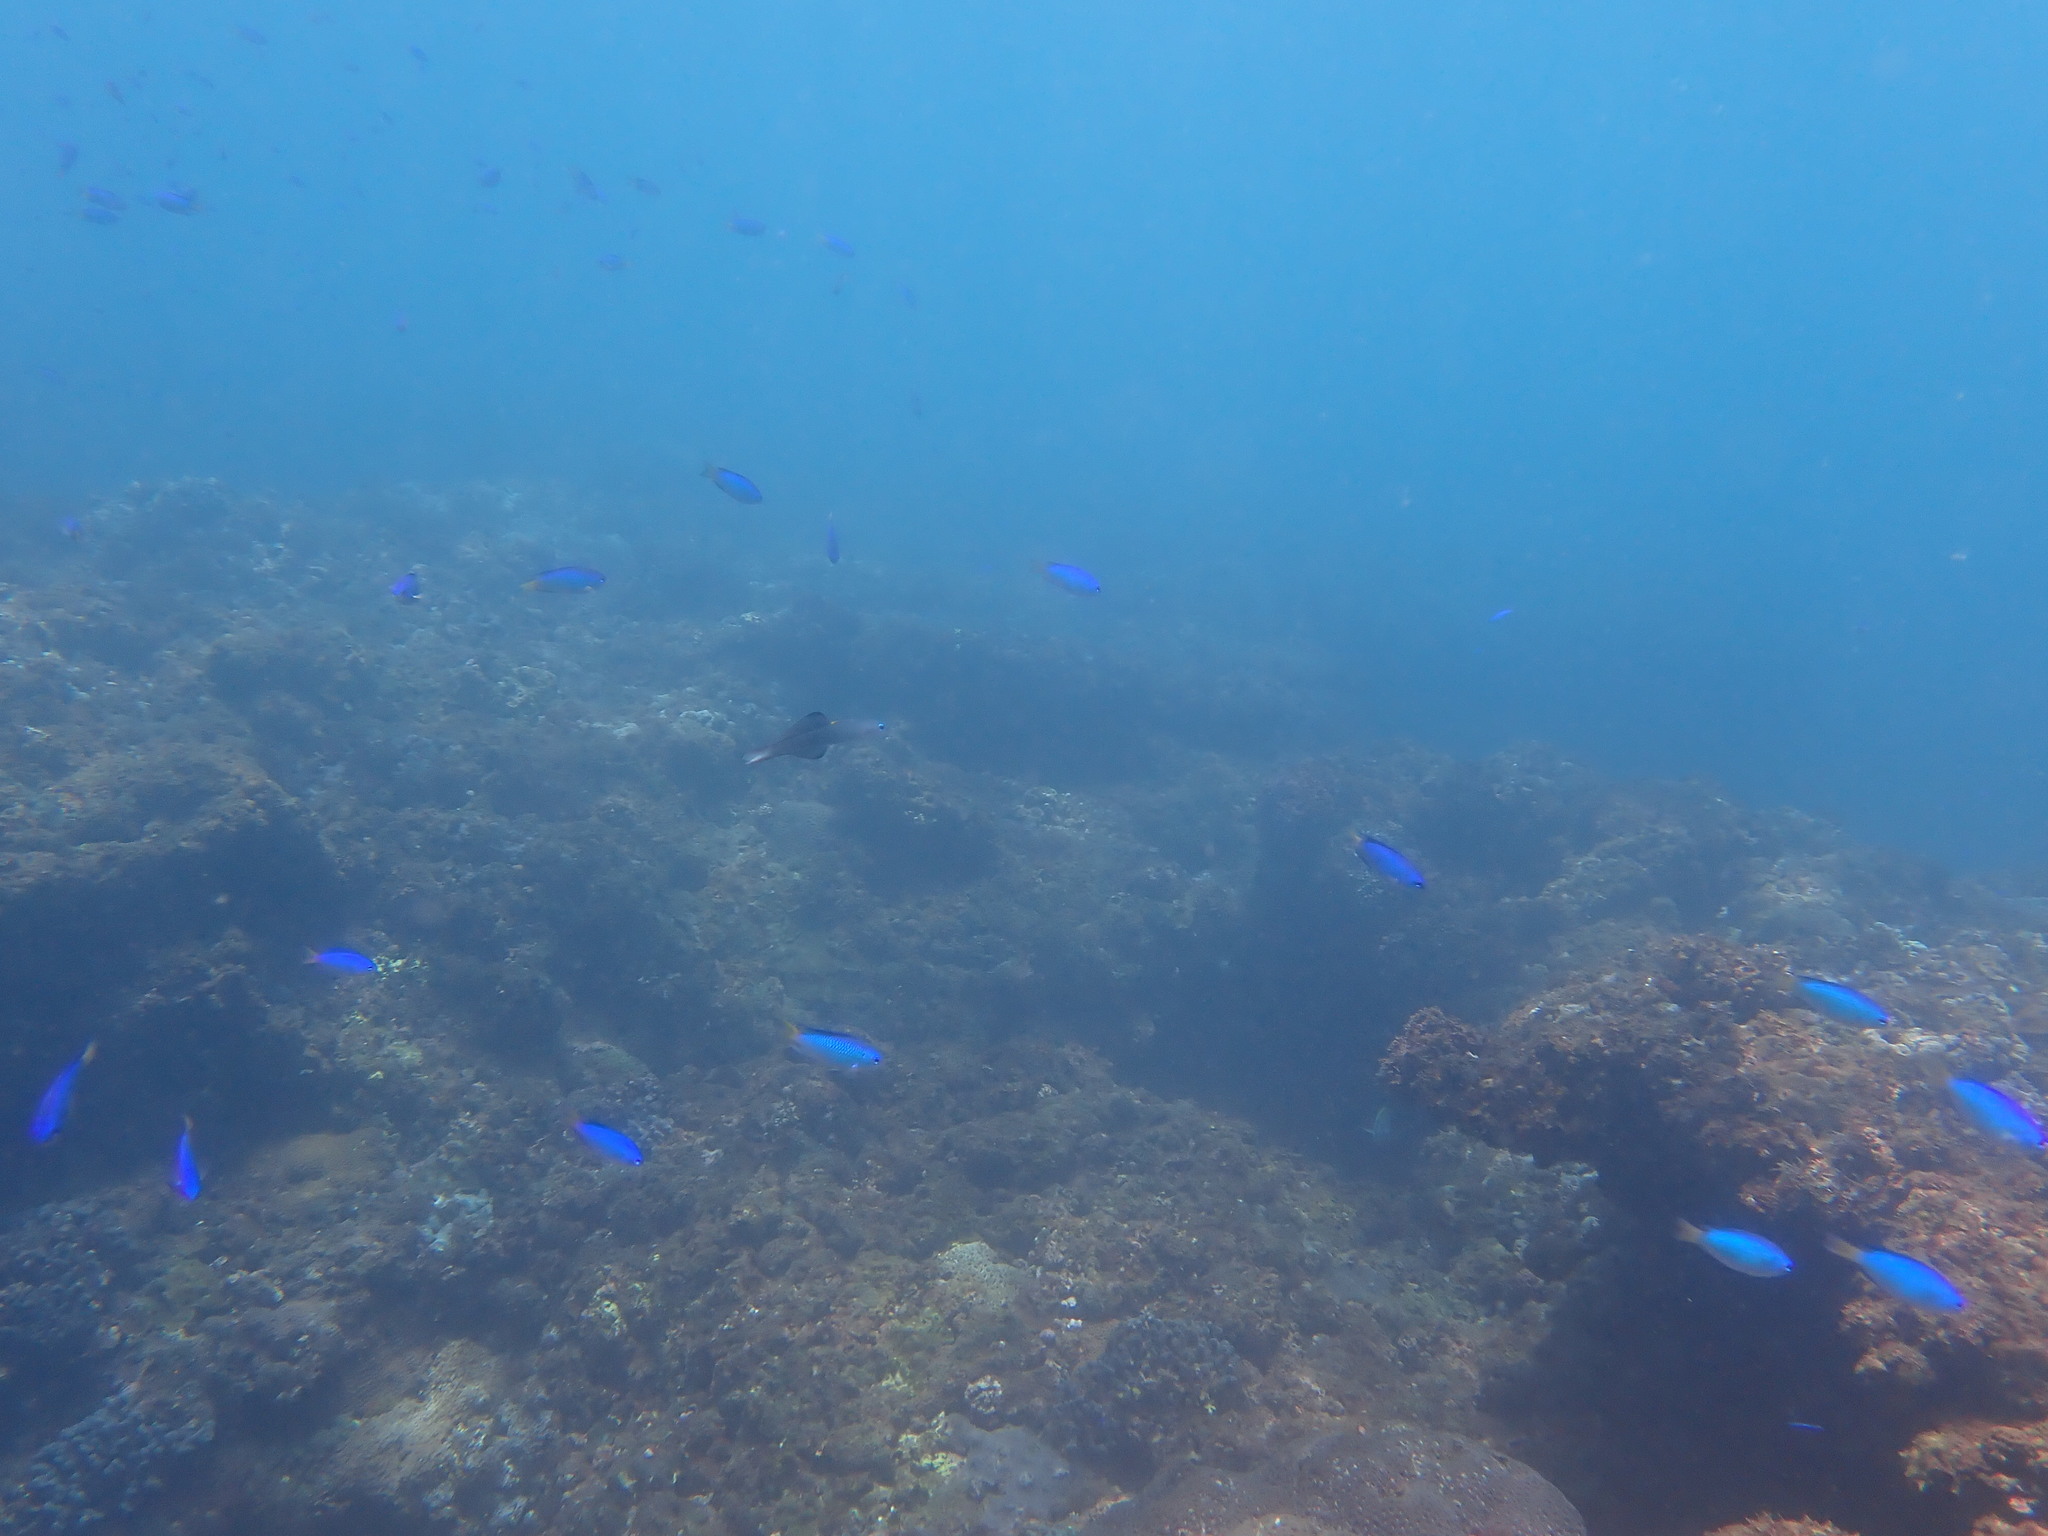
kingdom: Animalia
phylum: Chordata
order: Perciformes
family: Microdesmidae
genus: Ptereleotris
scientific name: Ptereleotris evides
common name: Blackfin dartfish
